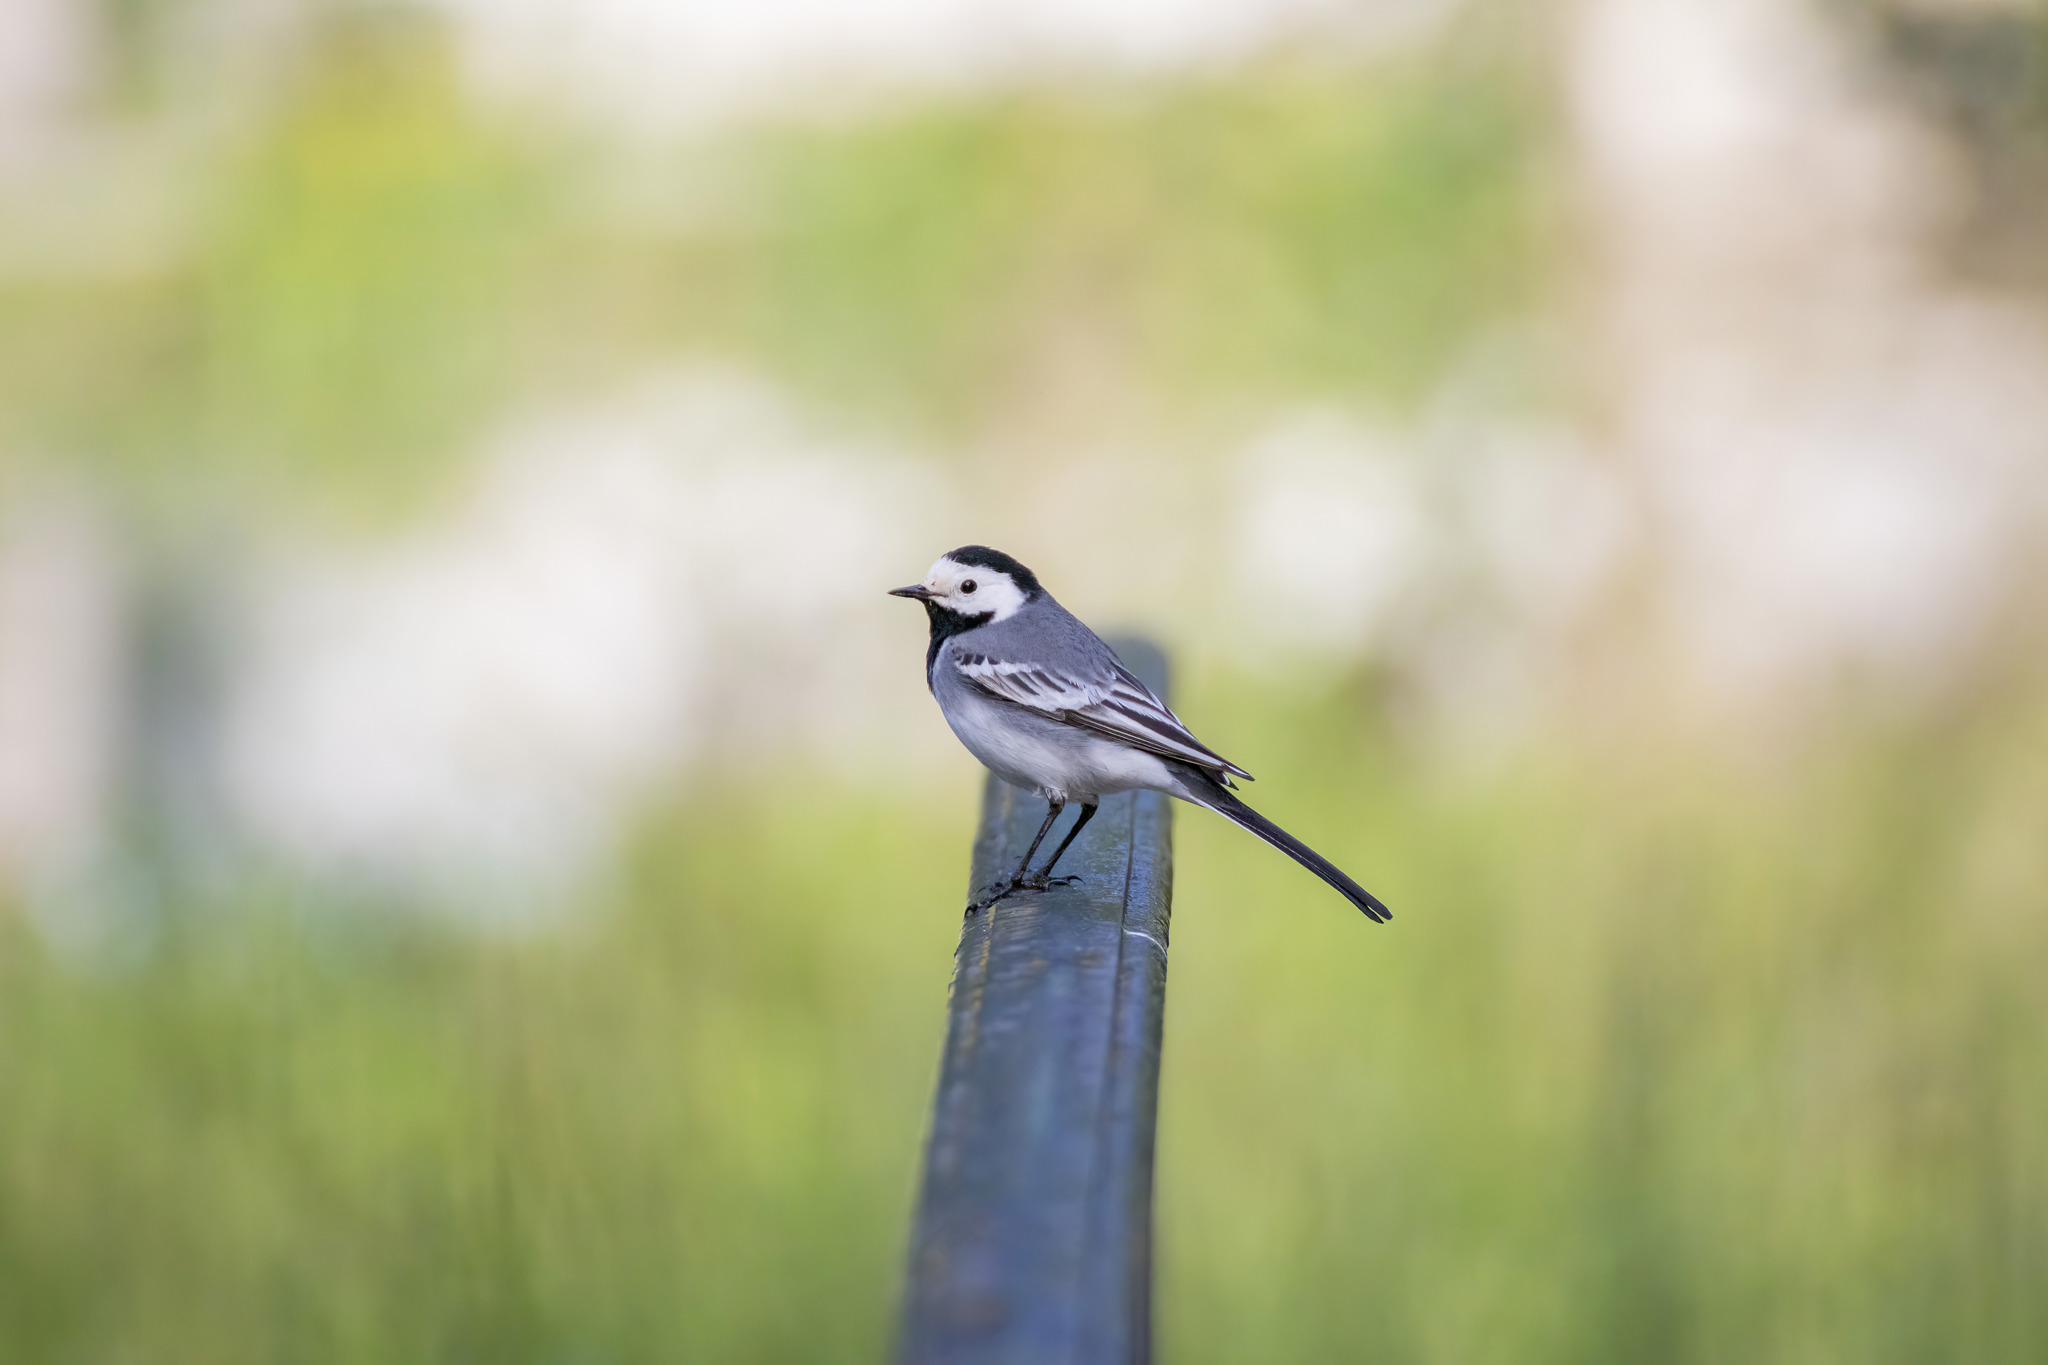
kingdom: Animalia
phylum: Chordata
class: Aves
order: Passeriformes
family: Motacillidae
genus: Motacilla
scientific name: Motacilla alba
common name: White wagtail
